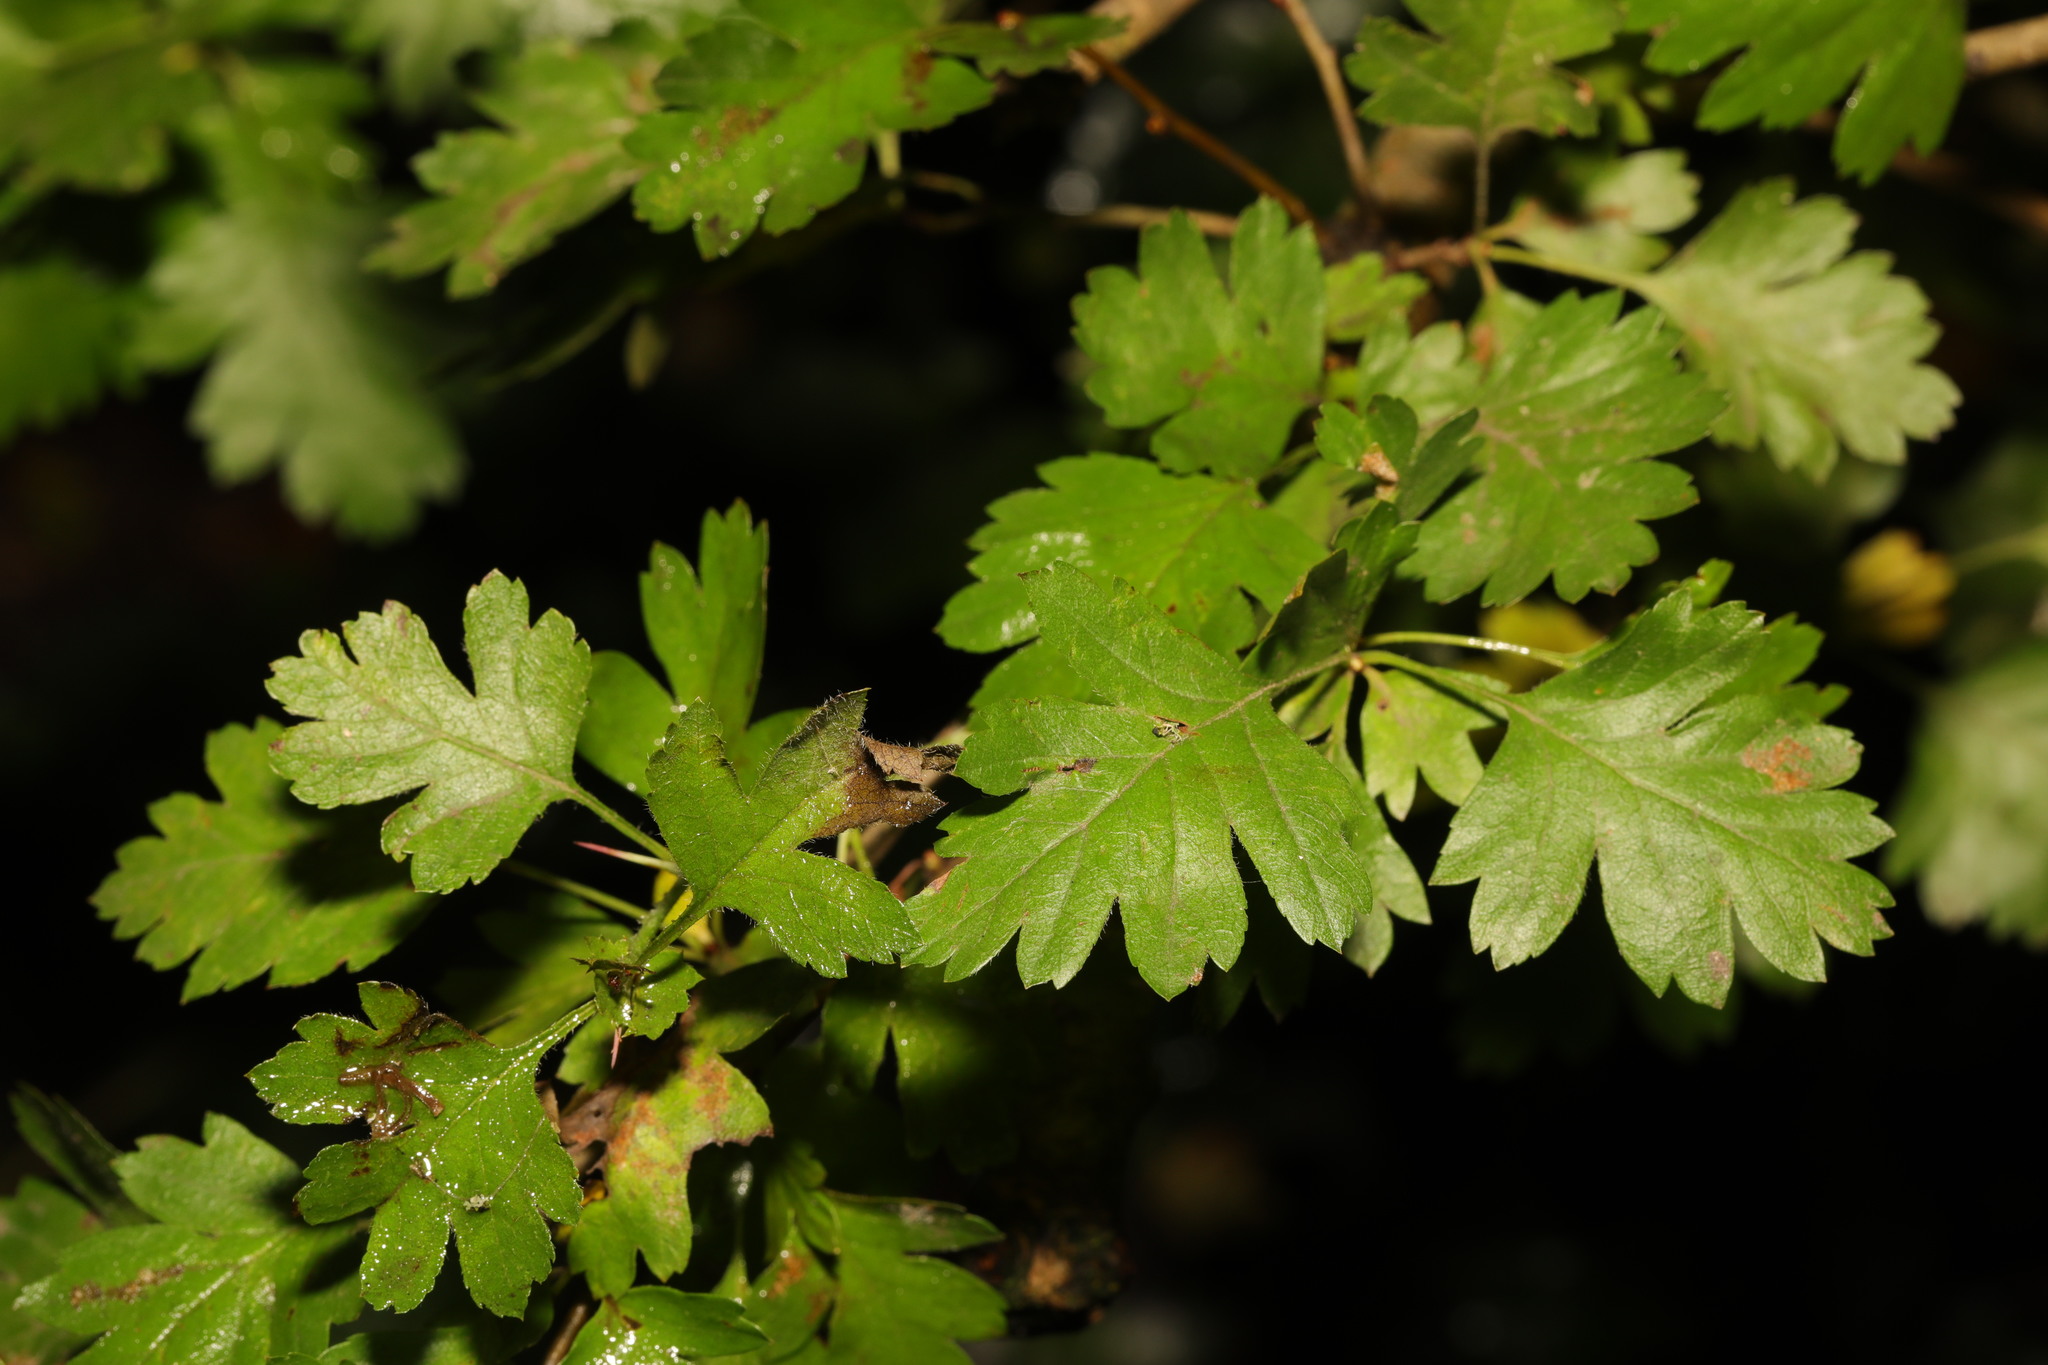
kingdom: Plantae
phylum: Tracheophyta
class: Magnoliopsida
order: Rosales
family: Rosaceae
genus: Crataegus
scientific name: Crataegus monogyna
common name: Hawthorn
